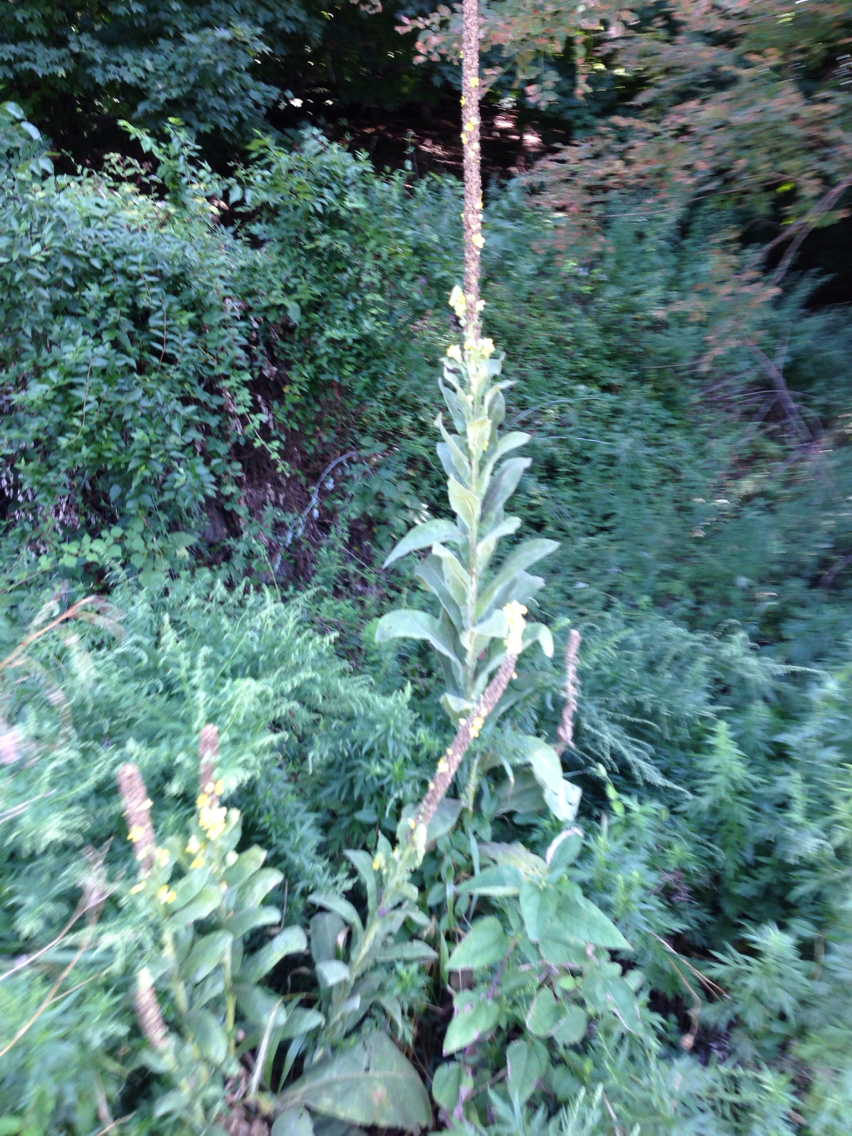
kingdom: Plantae
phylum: Tracheophyta
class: Magnoliopsida
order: Lamiales
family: Scrophulariaceae
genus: Verbascum
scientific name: Verbascum thapsus
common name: Common mullein
